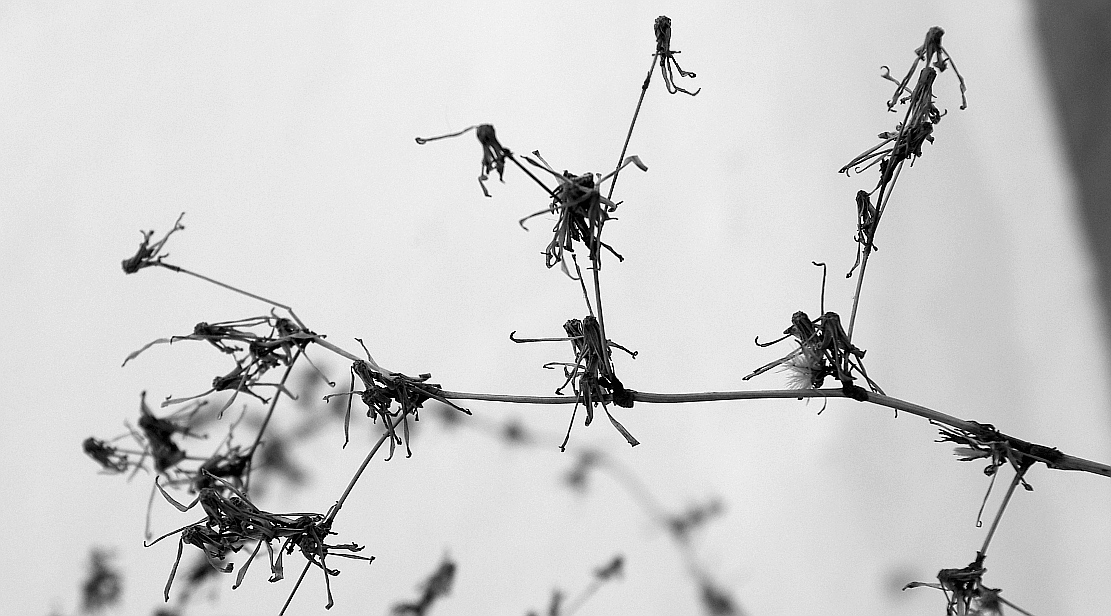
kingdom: Plantae
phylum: Tracheophyta
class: Magnoliopsida
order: Asterales
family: Asteraceae
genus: Lactuca
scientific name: Lactuca serriola
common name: Prickly lettuce
